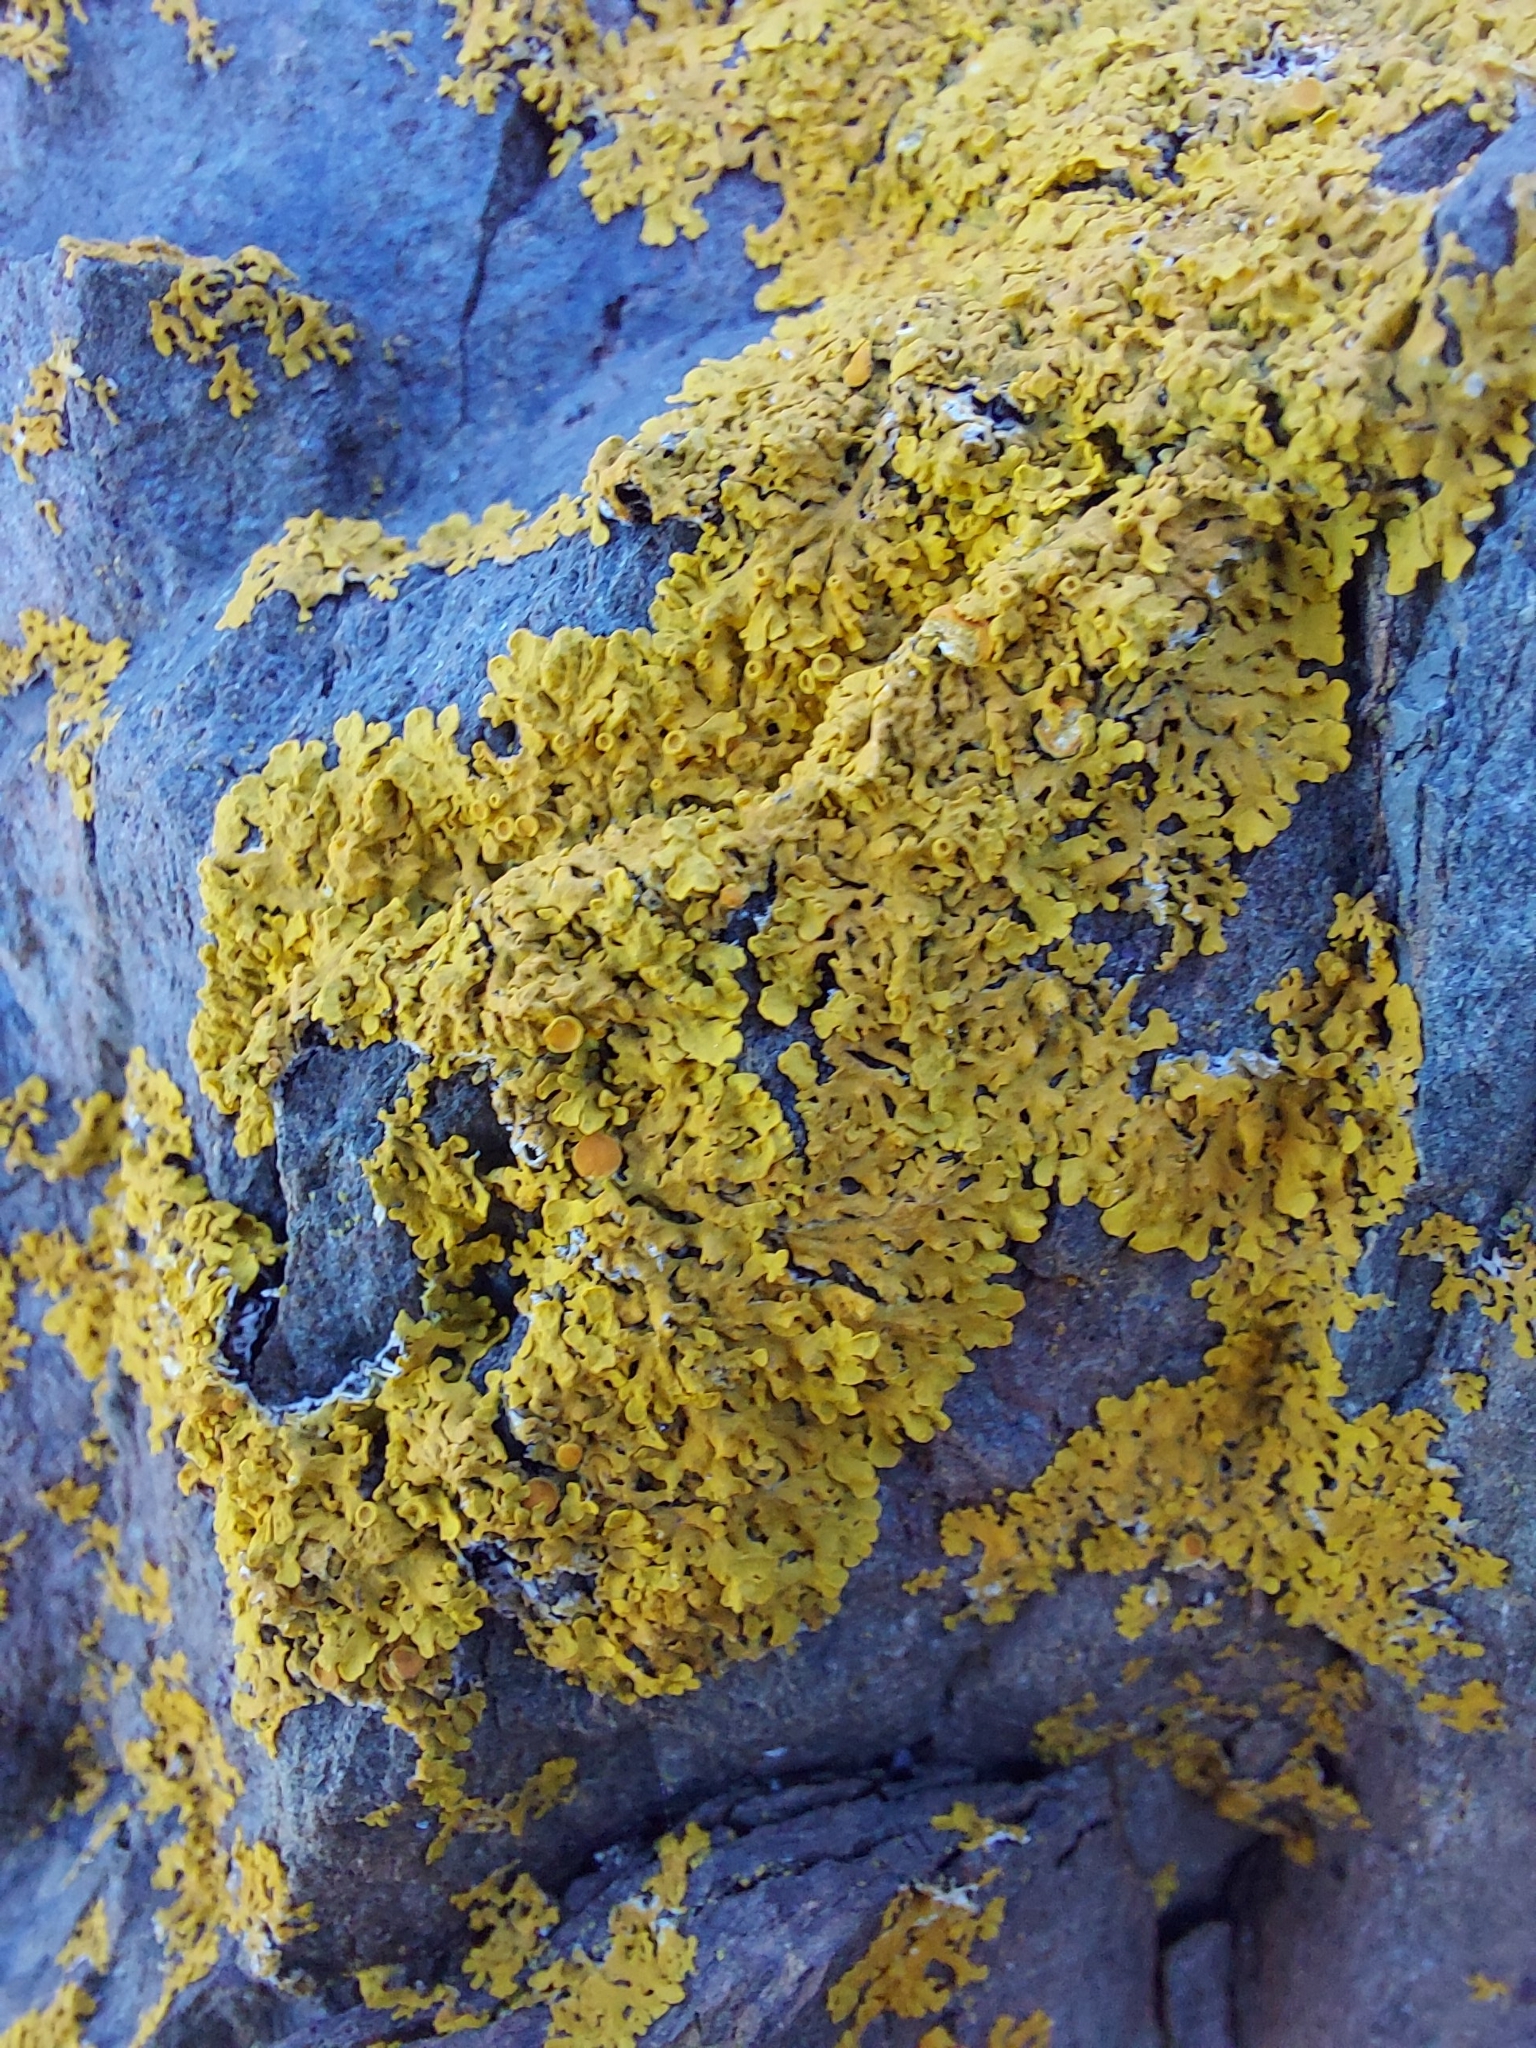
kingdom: Fungi
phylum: Ascomycota
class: Lecanoromycetes
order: Teloschistales
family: Teloschistaceae
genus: Xanthoria
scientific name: Xanthoria parietina
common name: Common orange lichen
